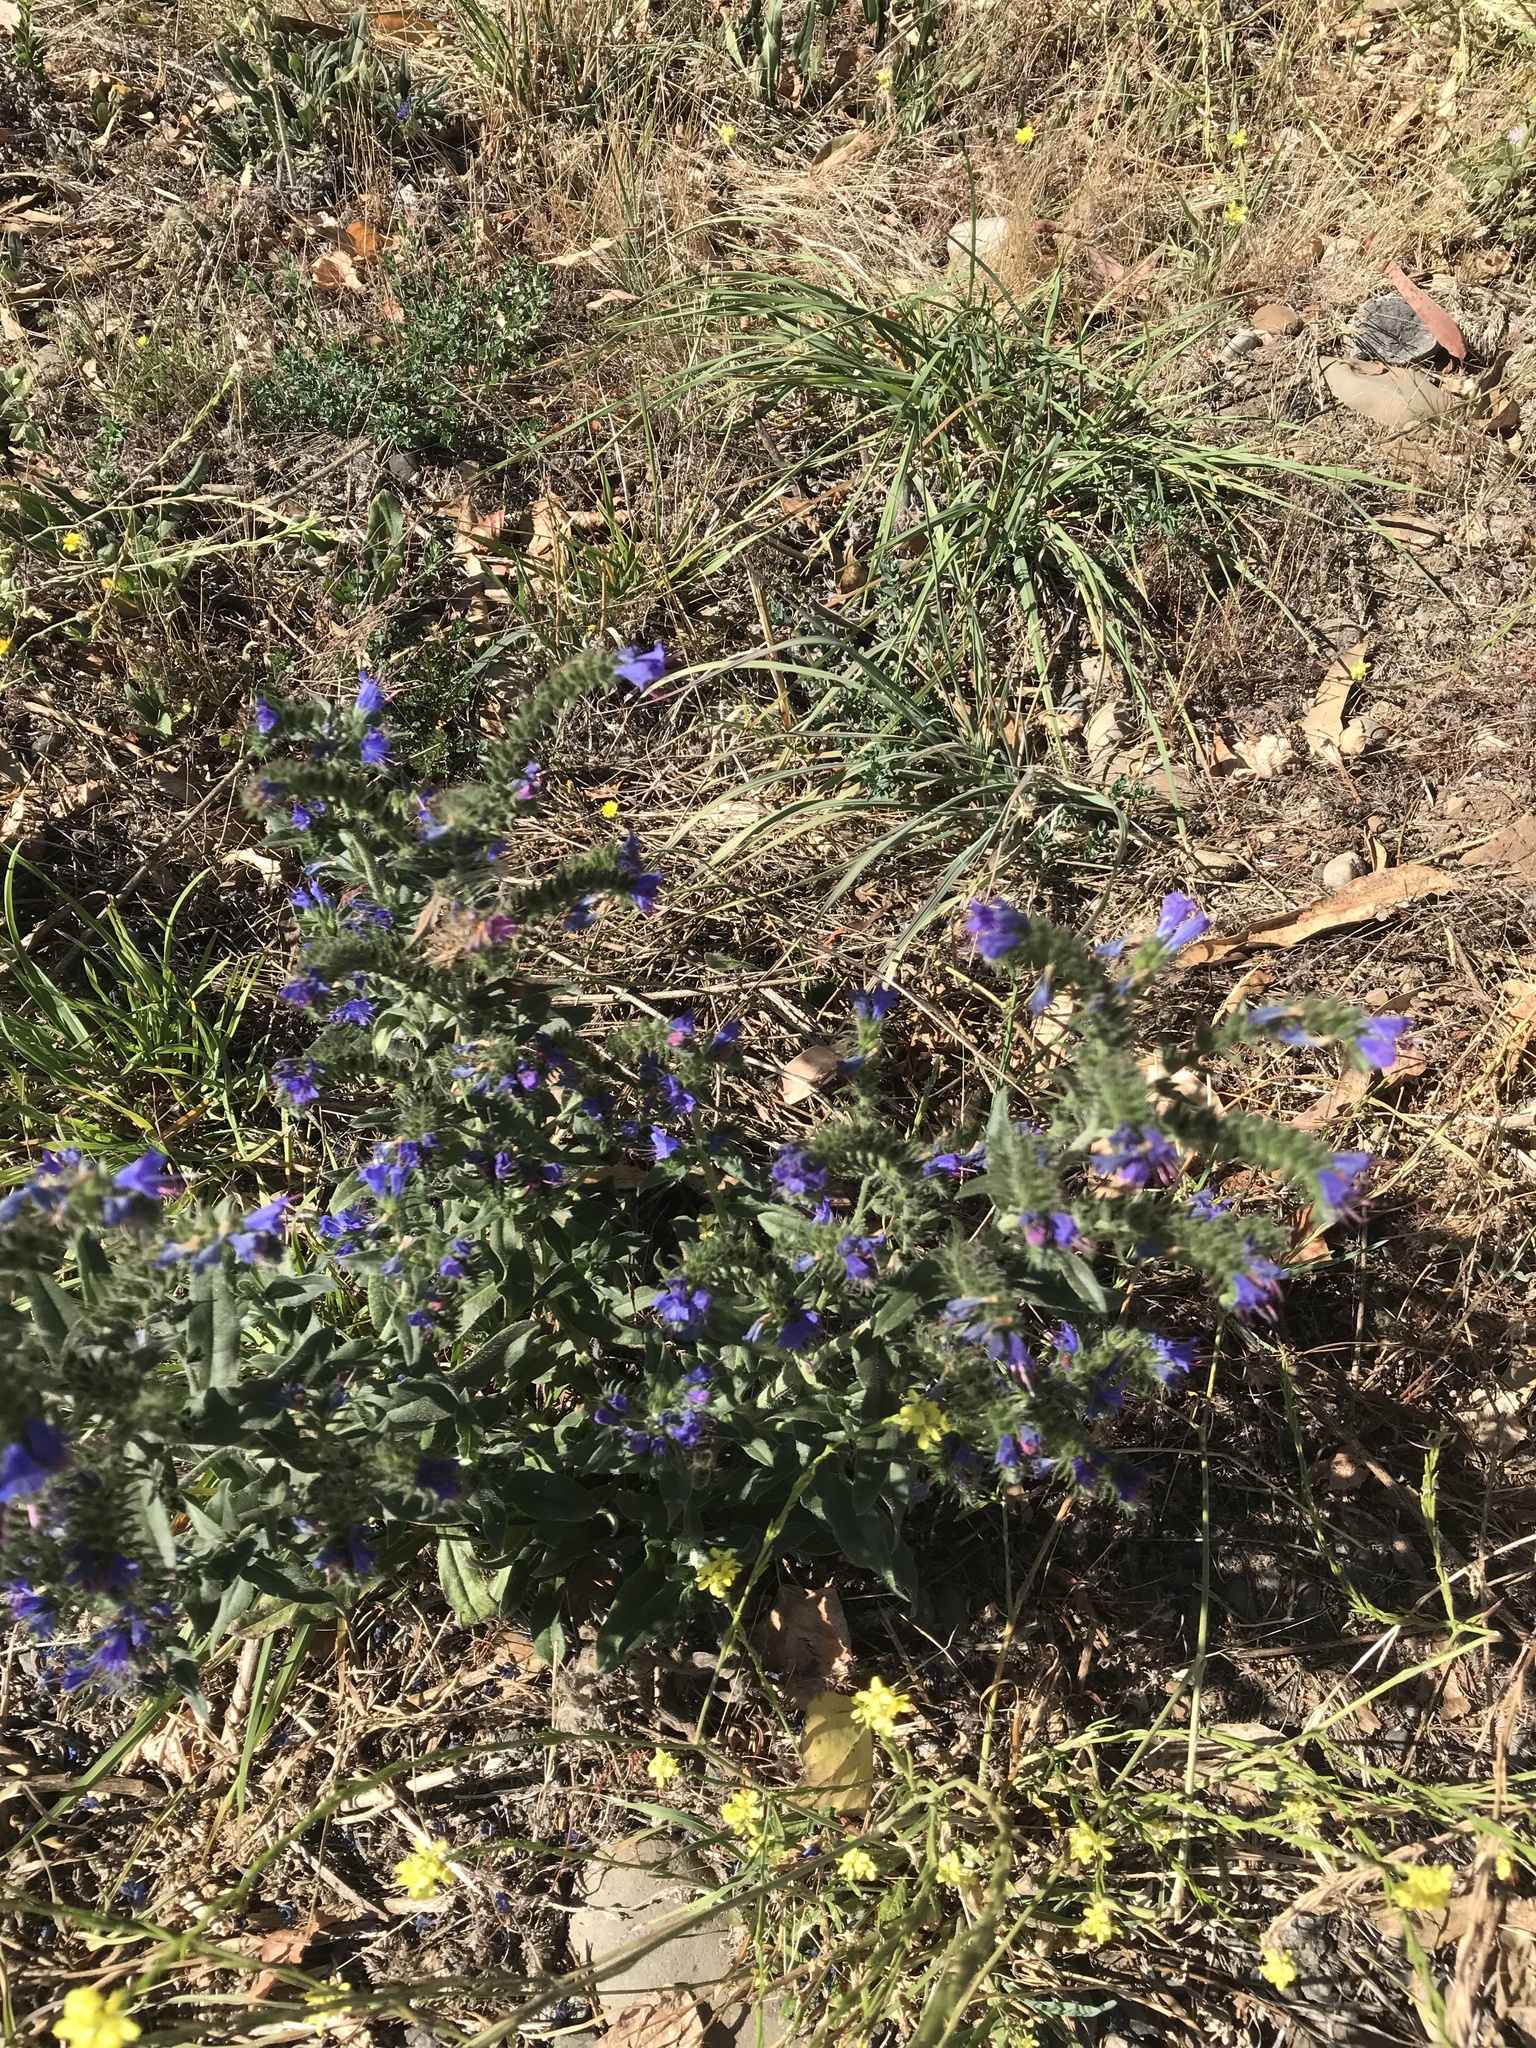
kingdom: Plantae
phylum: Tracheophyta
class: Magnoliopsida
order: Boraginales
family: Boraginaceae
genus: Echium
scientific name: Echium vulgare
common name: Common viper's bugloss
